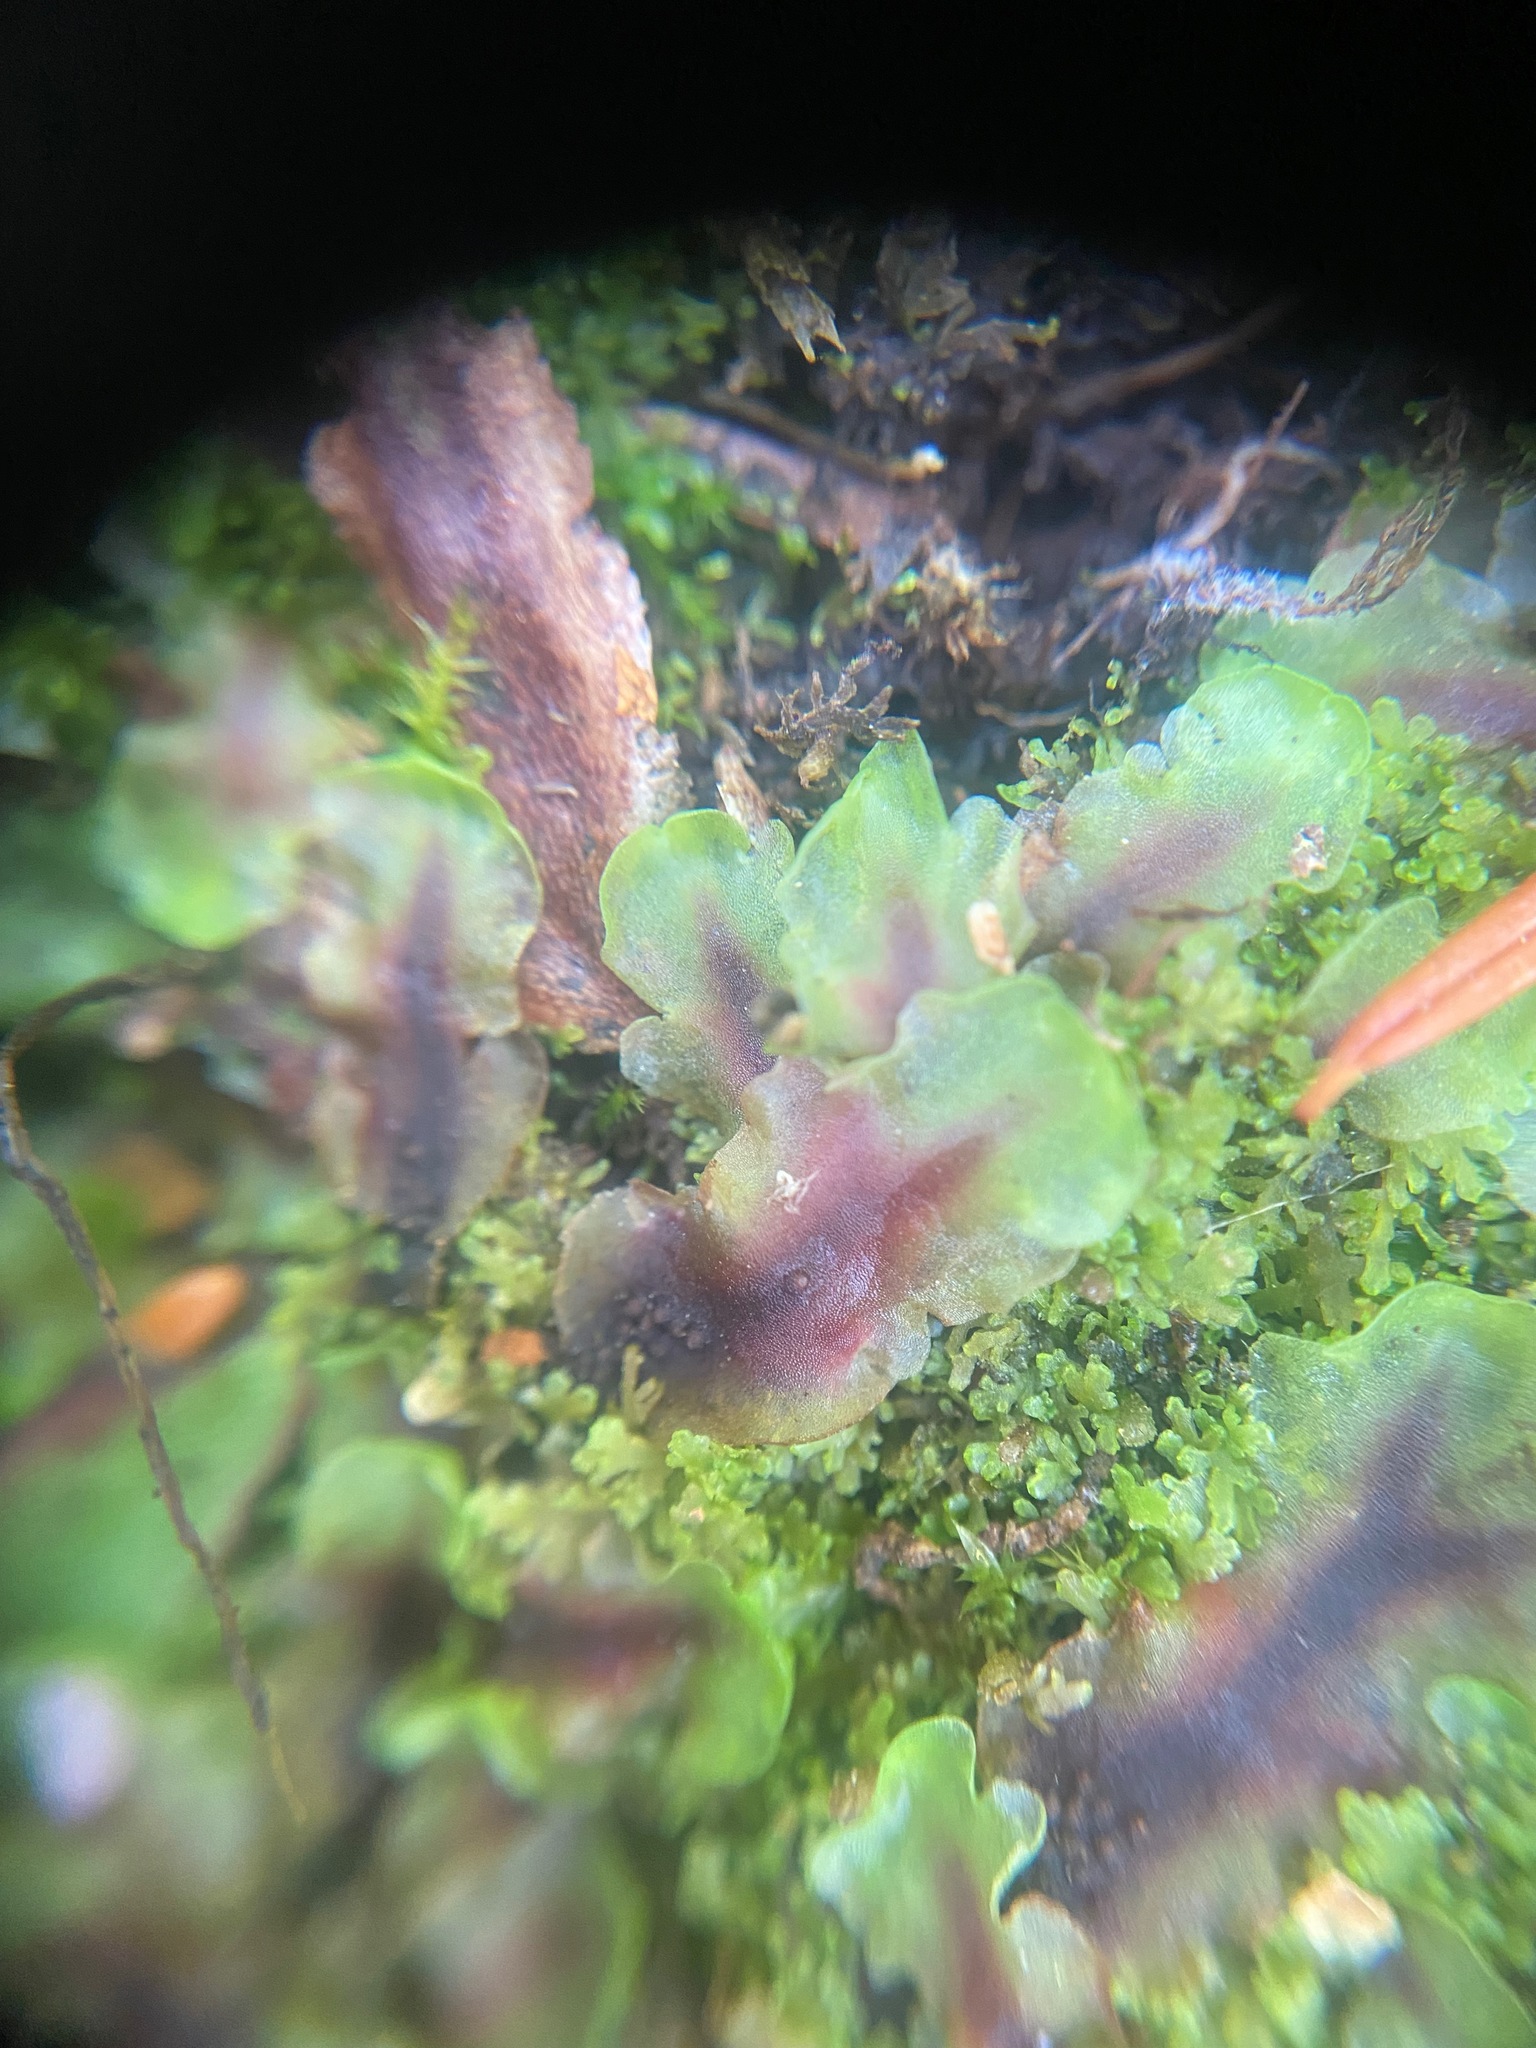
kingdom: Plantae
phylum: Marchantiophyta
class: Jungermanniopsida
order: Pelliales
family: Pelliaceae
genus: Pellia
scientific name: Pellia neesiana
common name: Nees  pellia
